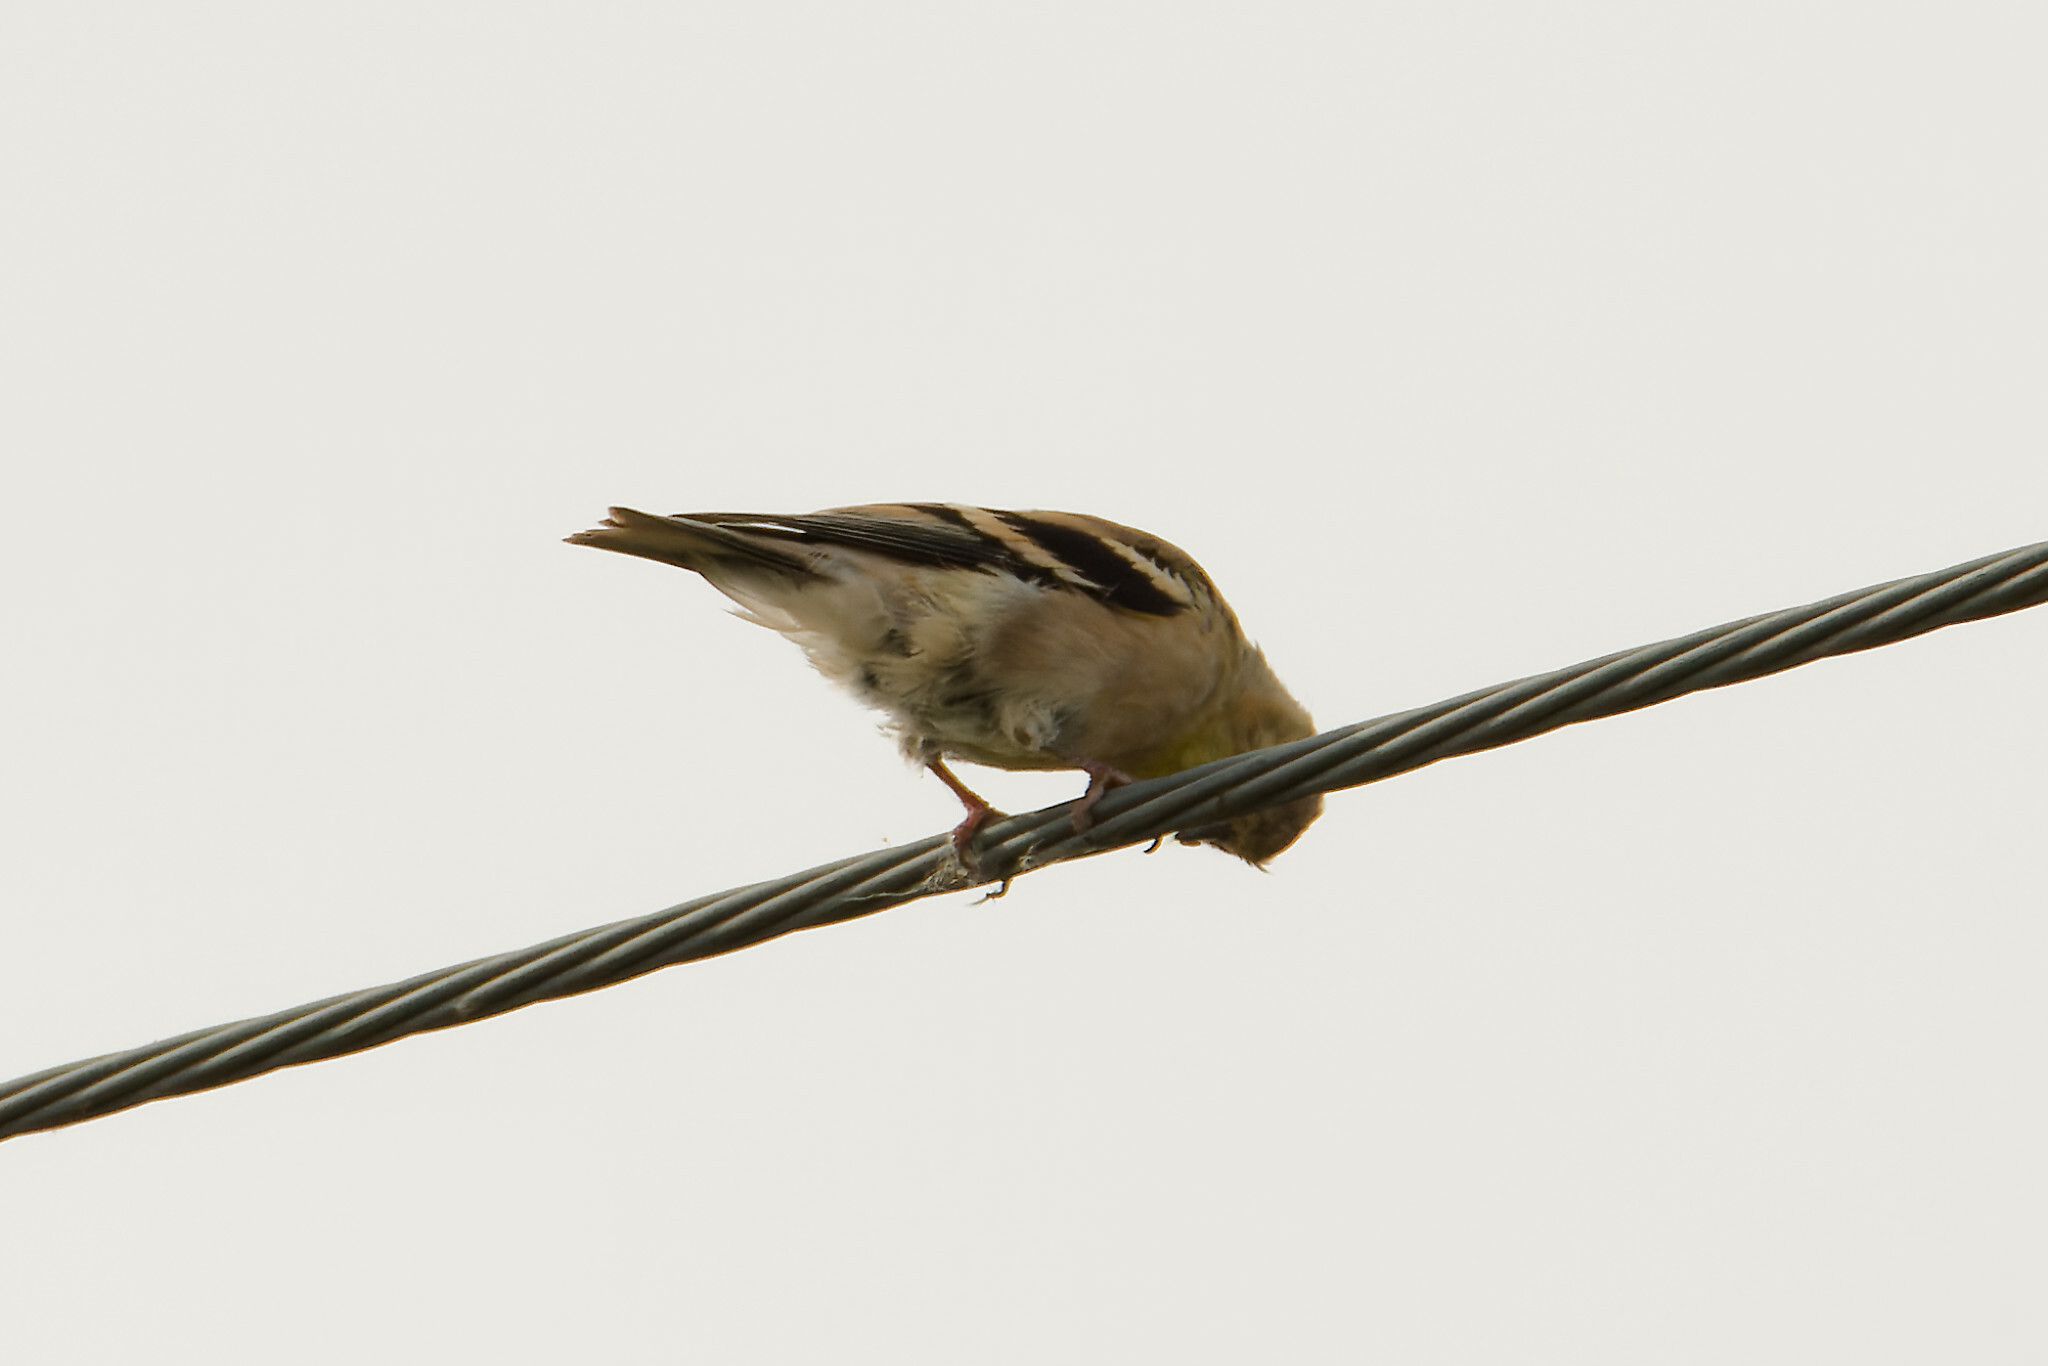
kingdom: Animalia
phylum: Chordata
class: Aves
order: Passeriformes
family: Fringillidae
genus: Spinus
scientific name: Spinus tristis
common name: American goldfinch
